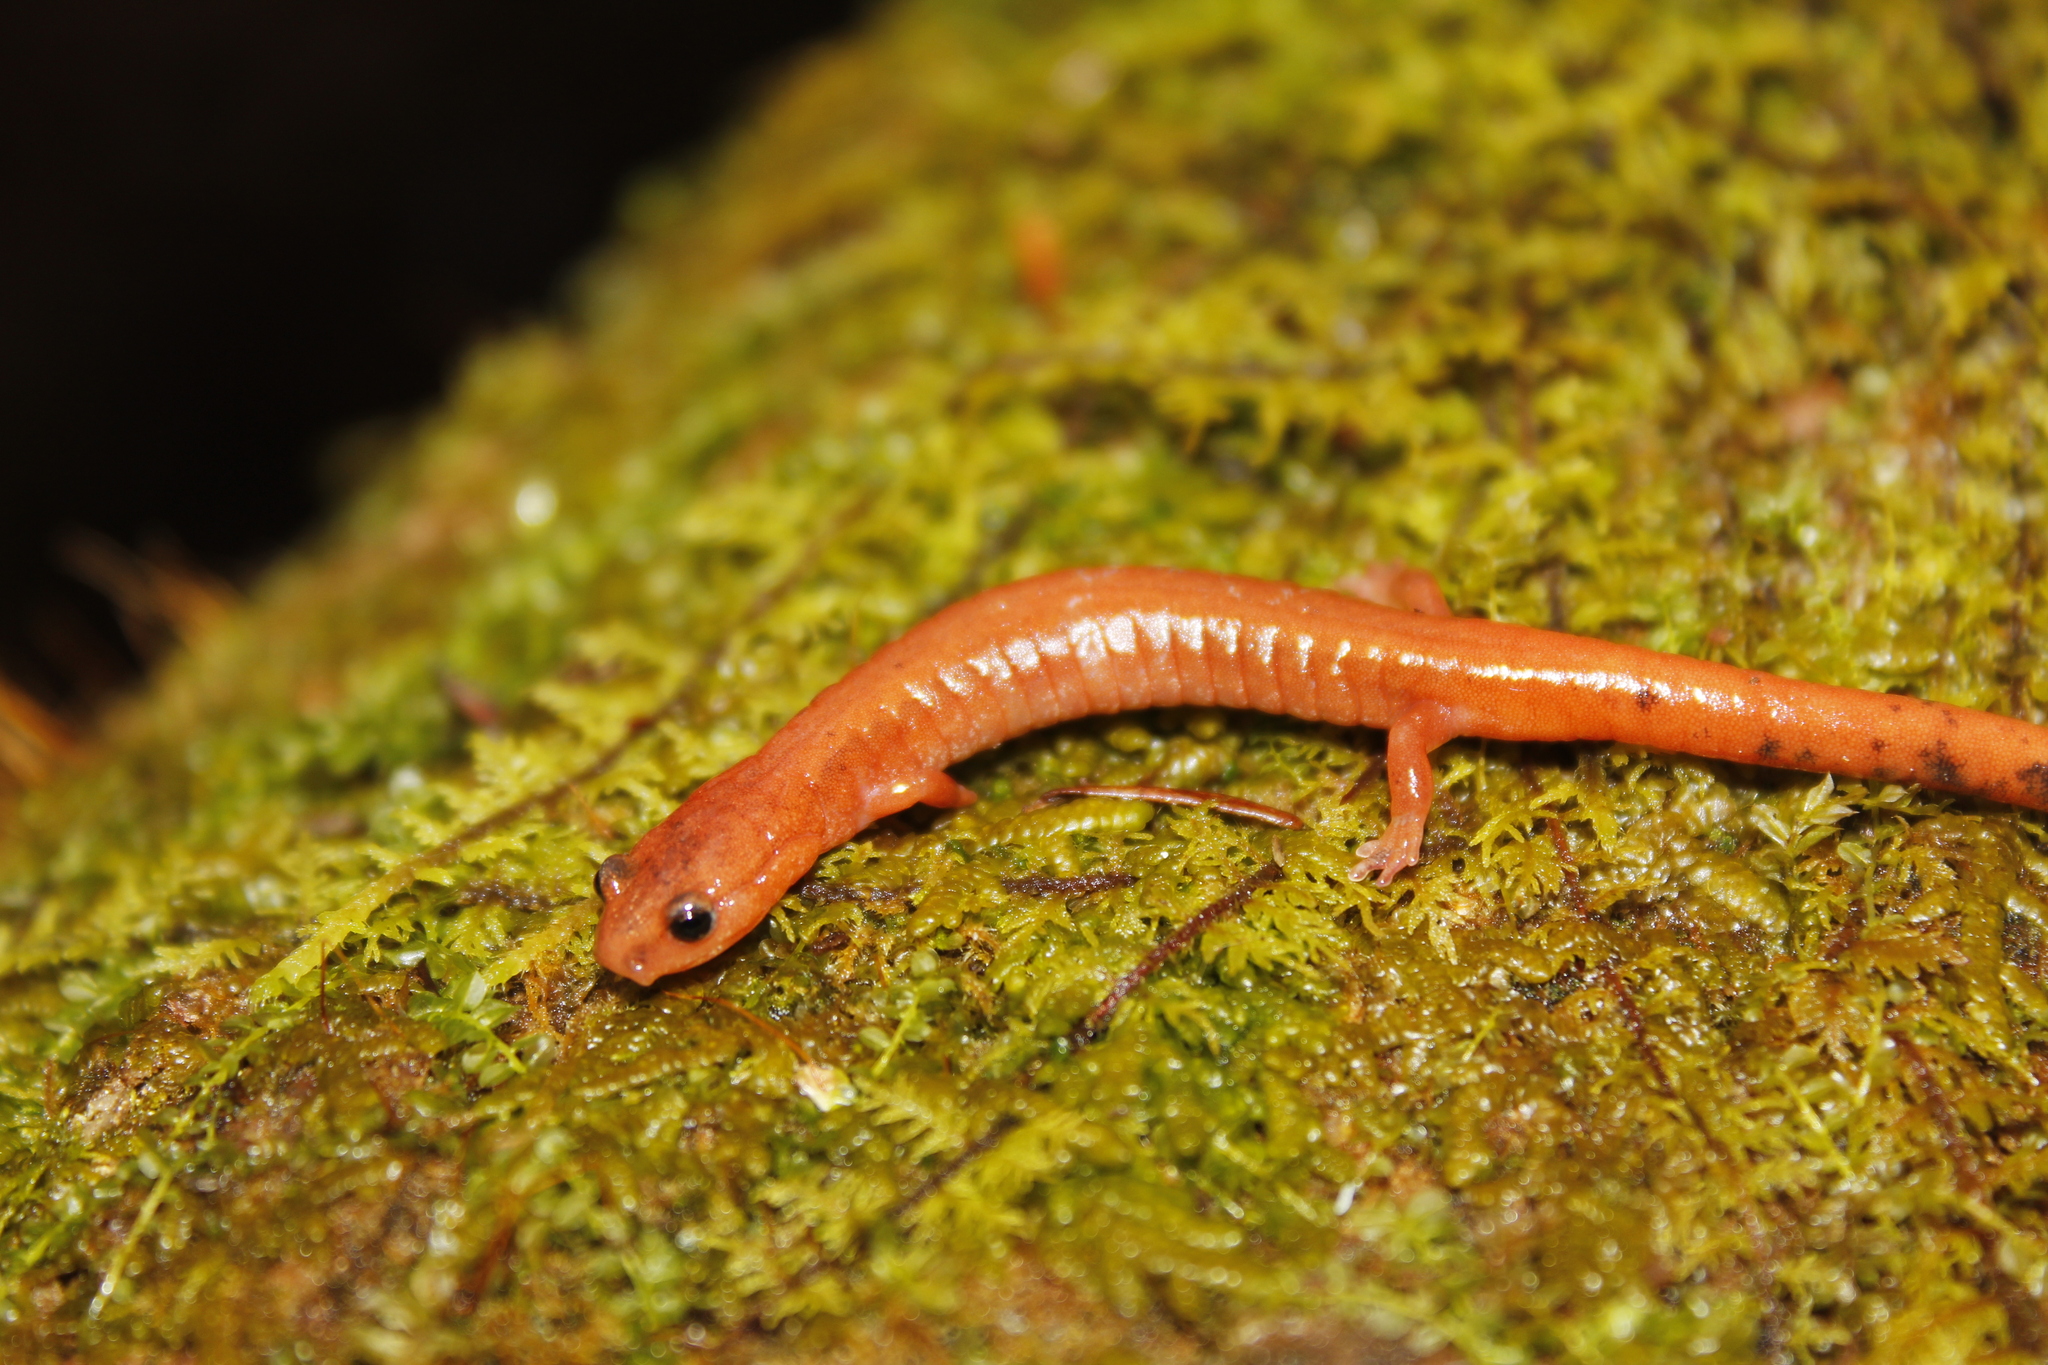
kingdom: Animalia
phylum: Chordata
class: Amphibia
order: Caudata
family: Plethodontidae
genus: Plethodon
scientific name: Plethodon cinereus
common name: Redback salamander
